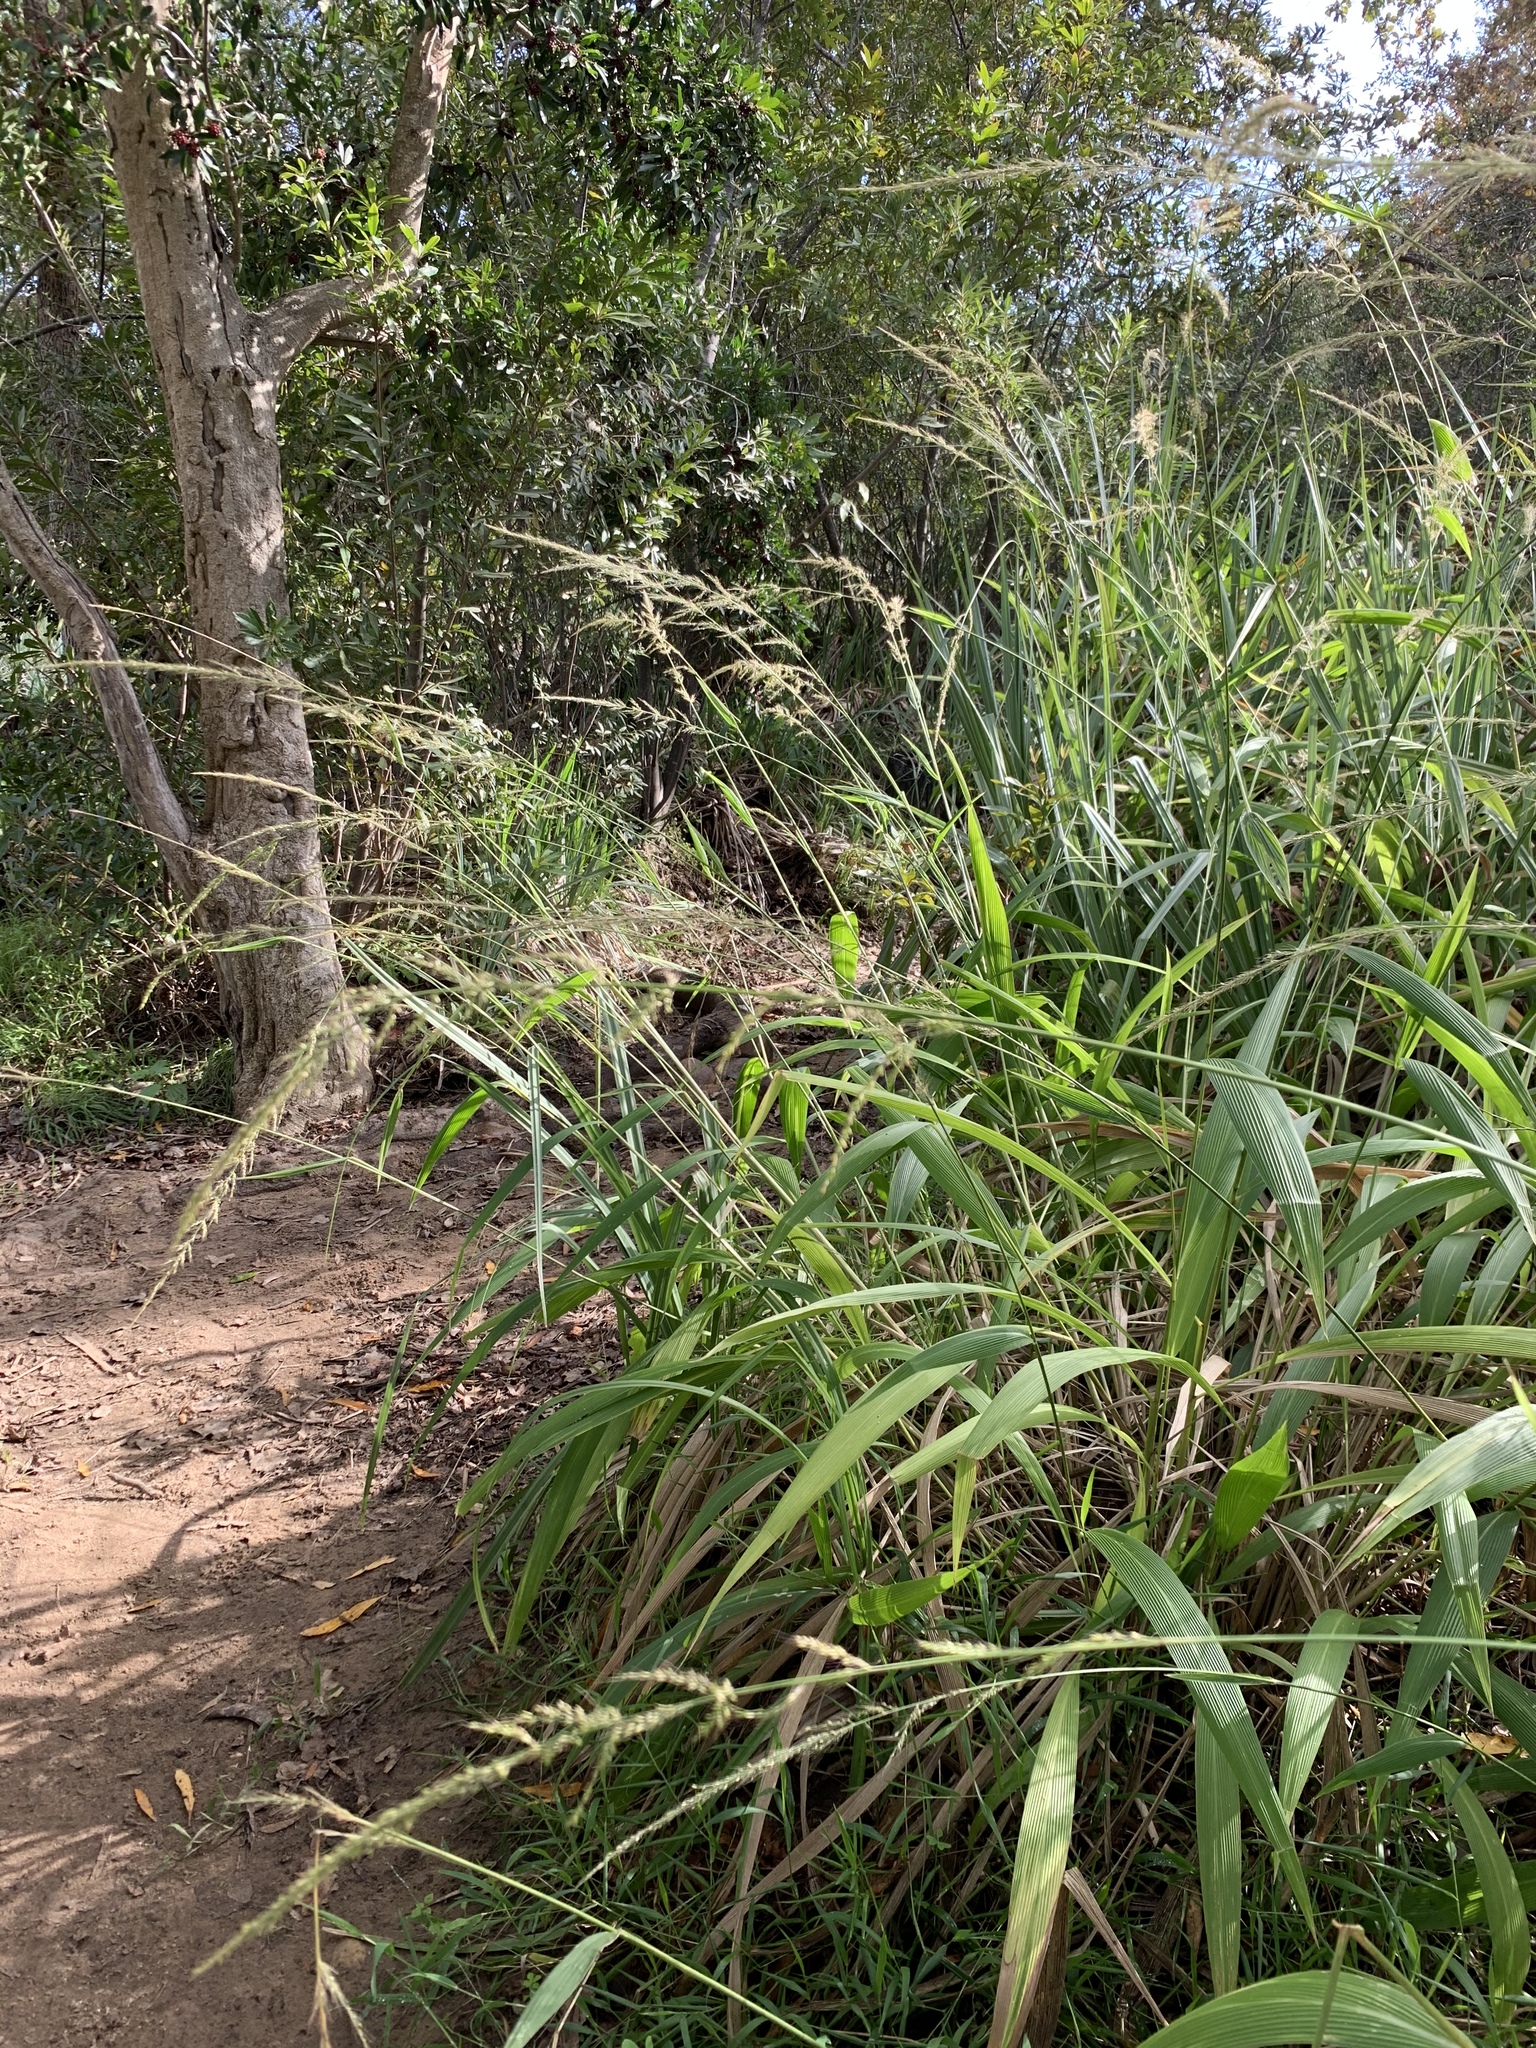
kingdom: Plantae
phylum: Tracheophyta
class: Liliopsida
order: Poales
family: Poaceae
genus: Setaria
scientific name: Setaria megaphylla
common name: Bigleaf bristlegrass
